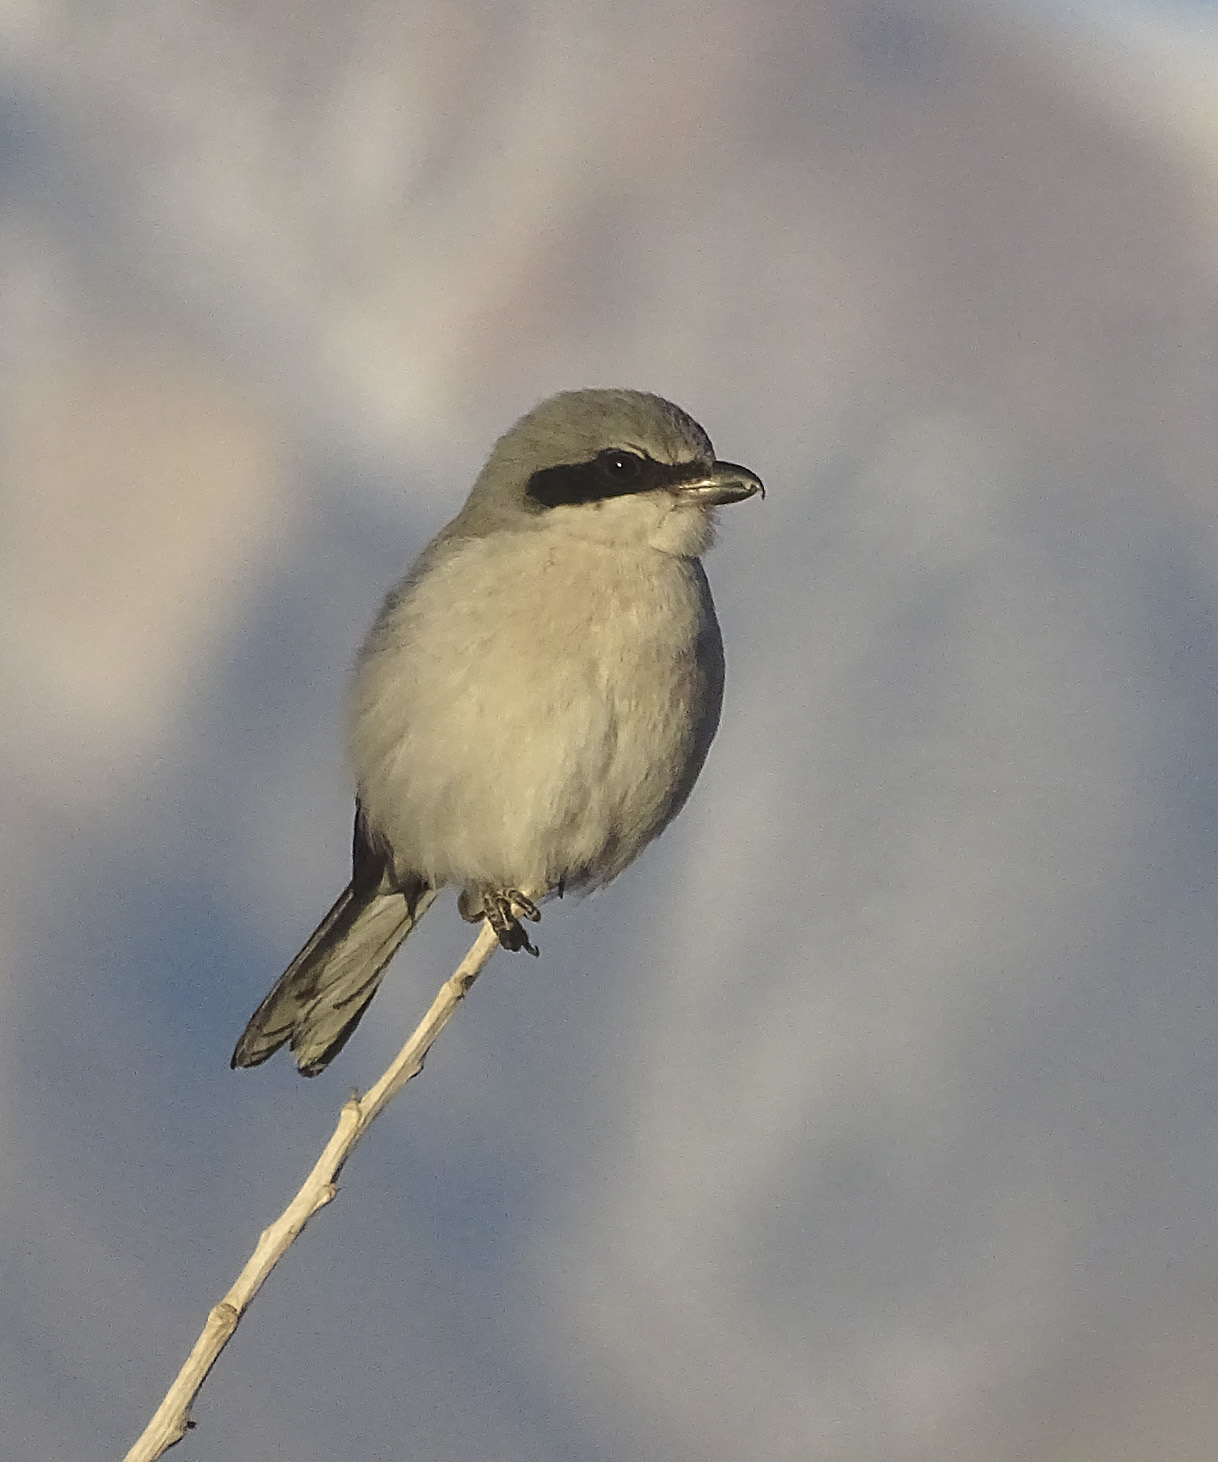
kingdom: Animalia
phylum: Chordata
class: Aves
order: Passeriformes
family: Laniidae
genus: Lanius
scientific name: Lanius ludovicianus
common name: Loggerhead shrike
